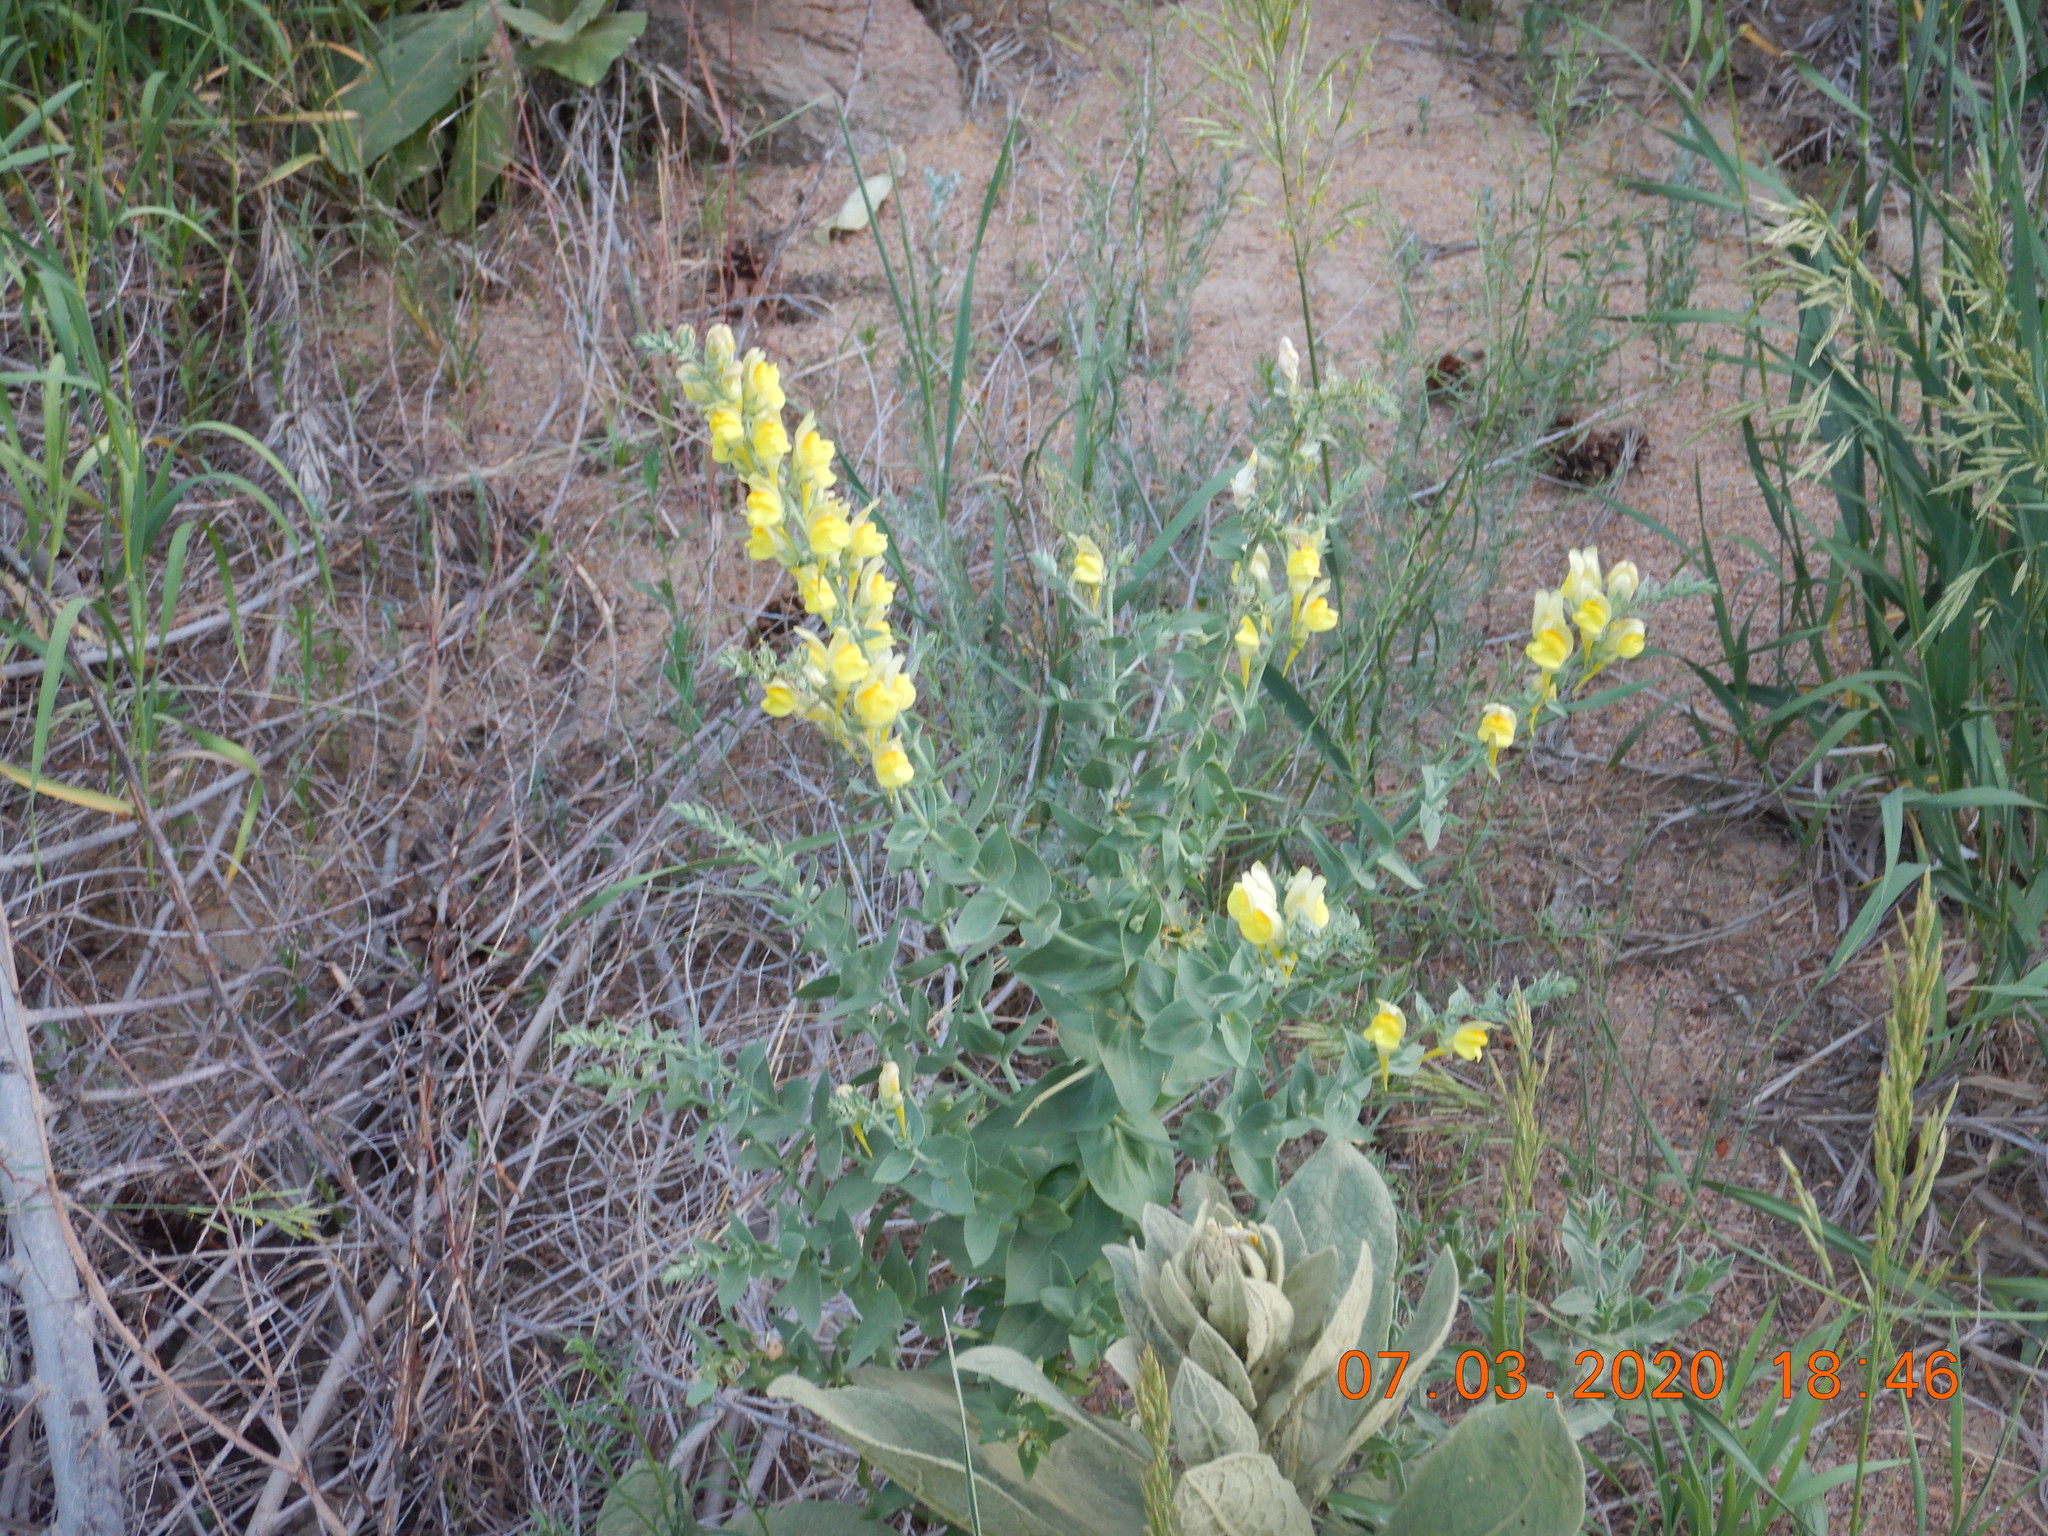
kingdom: Plantae
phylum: Tracheophyta
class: Magnoliopsida
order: Lamiales
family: Plantaginaceae
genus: Linaria
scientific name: Linaria dalmatica
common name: Dalmatian toadflax
